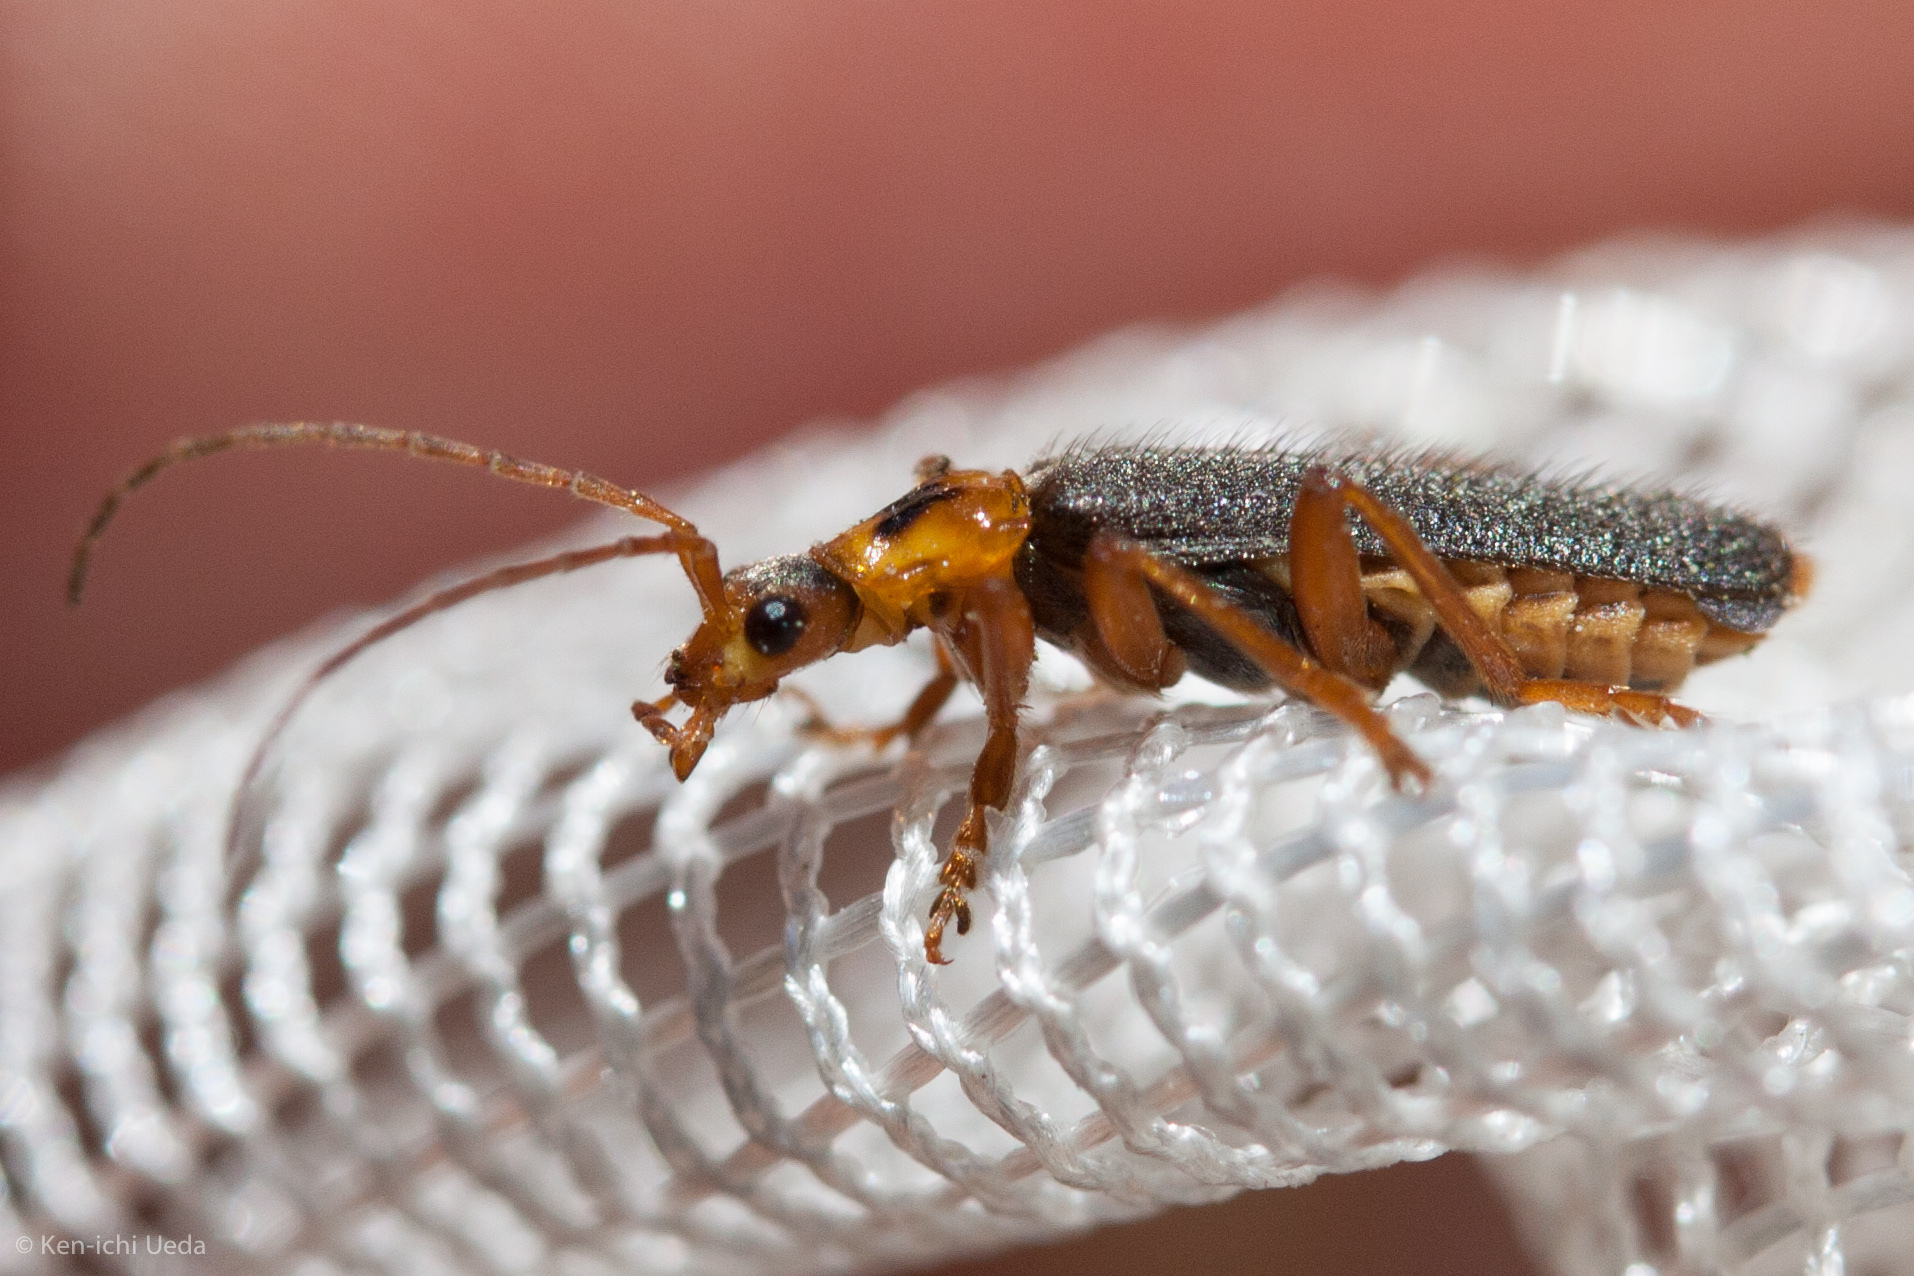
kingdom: Animalia
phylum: Arthropoda
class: Insecta
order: Coleoptera
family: Cantharidae
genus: Cultellunguis
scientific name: Cultellunguis americanus
